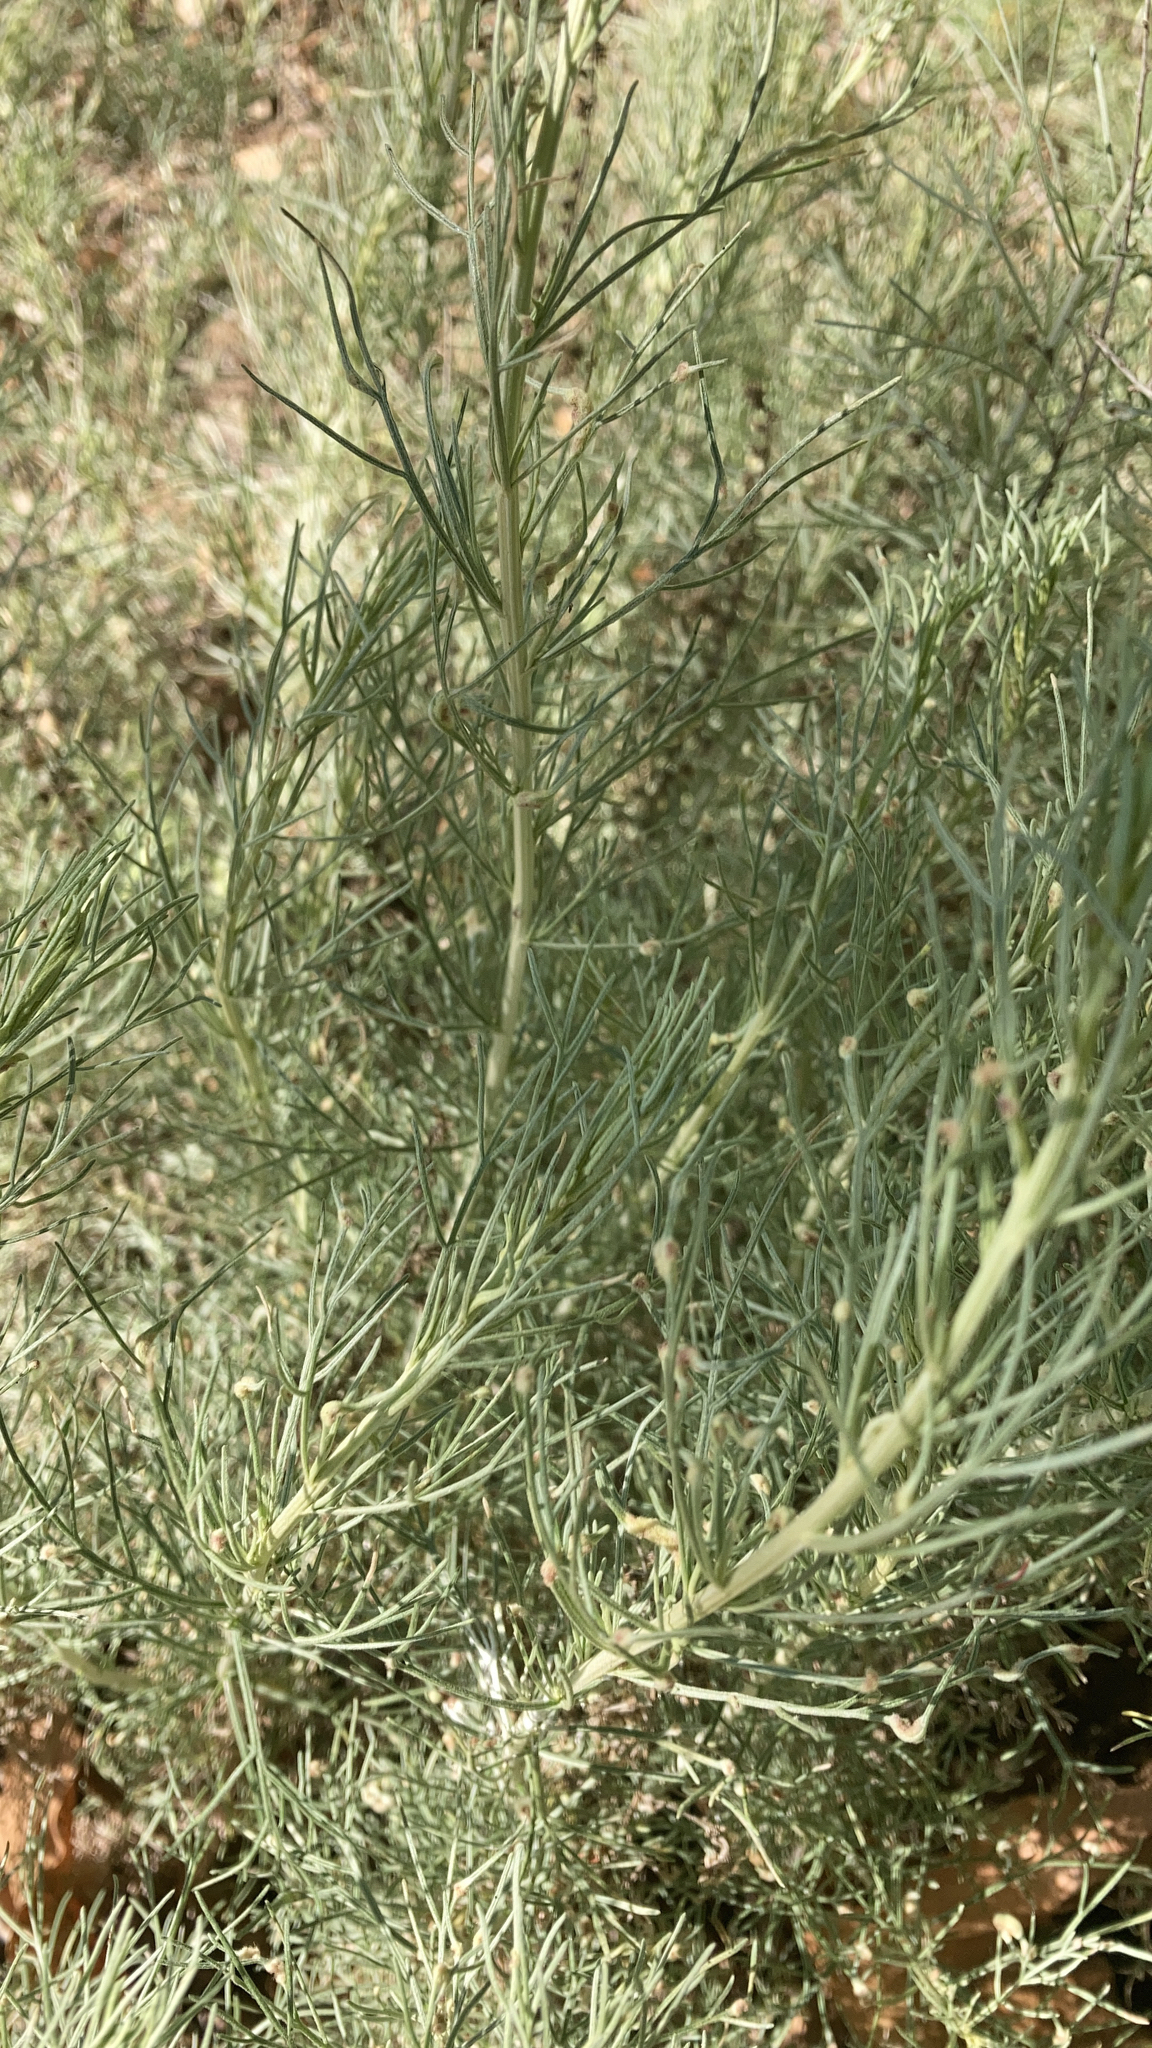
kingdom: Plantae
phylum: Tracheophyta
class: Magnoliopsida
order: Asterales
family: Asteraceae
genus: Artemisia
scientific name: Artemisia californica
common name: California sagebrush
